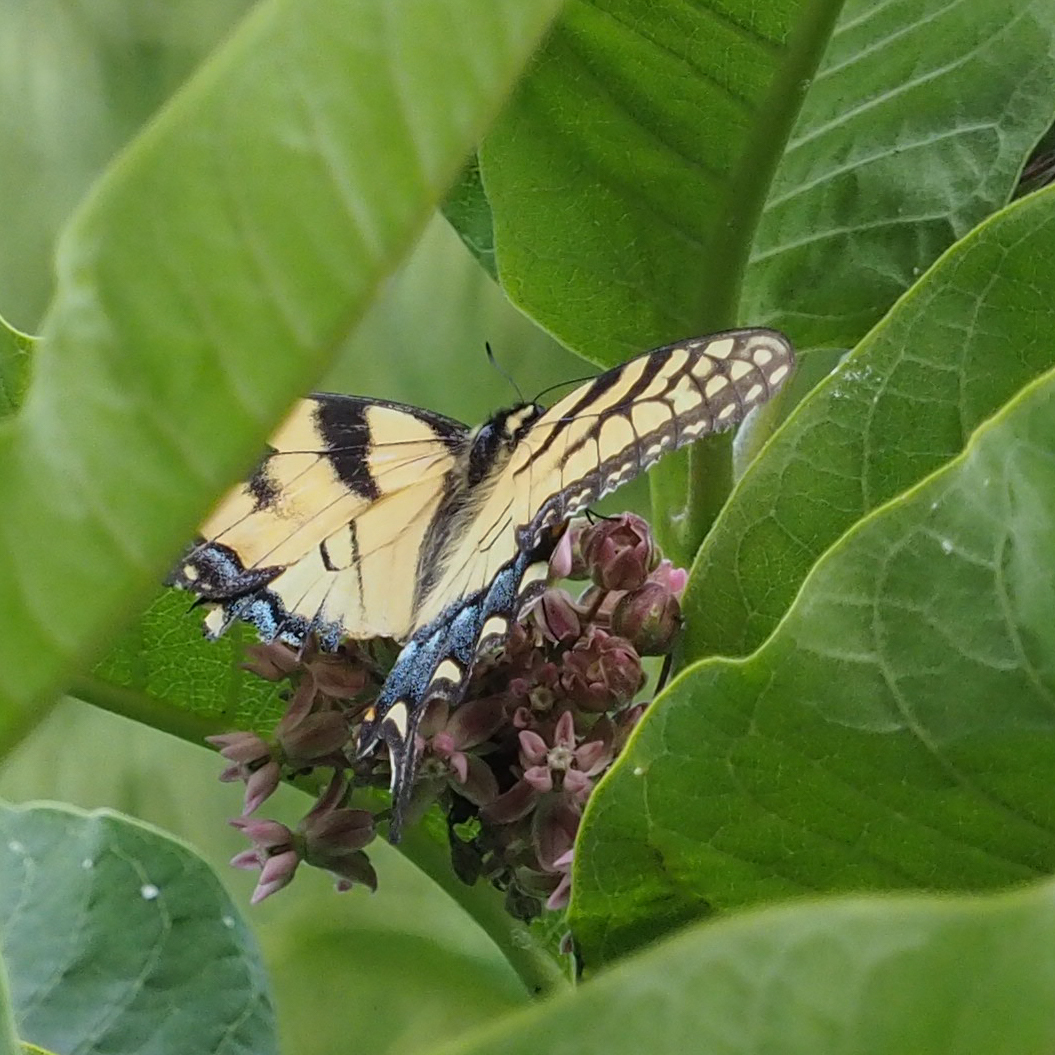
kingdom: Animalia
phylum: Arthropoda
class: Insecta
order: Lepidoptera
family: Papilionidae
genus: Papilio
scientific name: Papilio glaucus
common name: Tiger swallowtail
